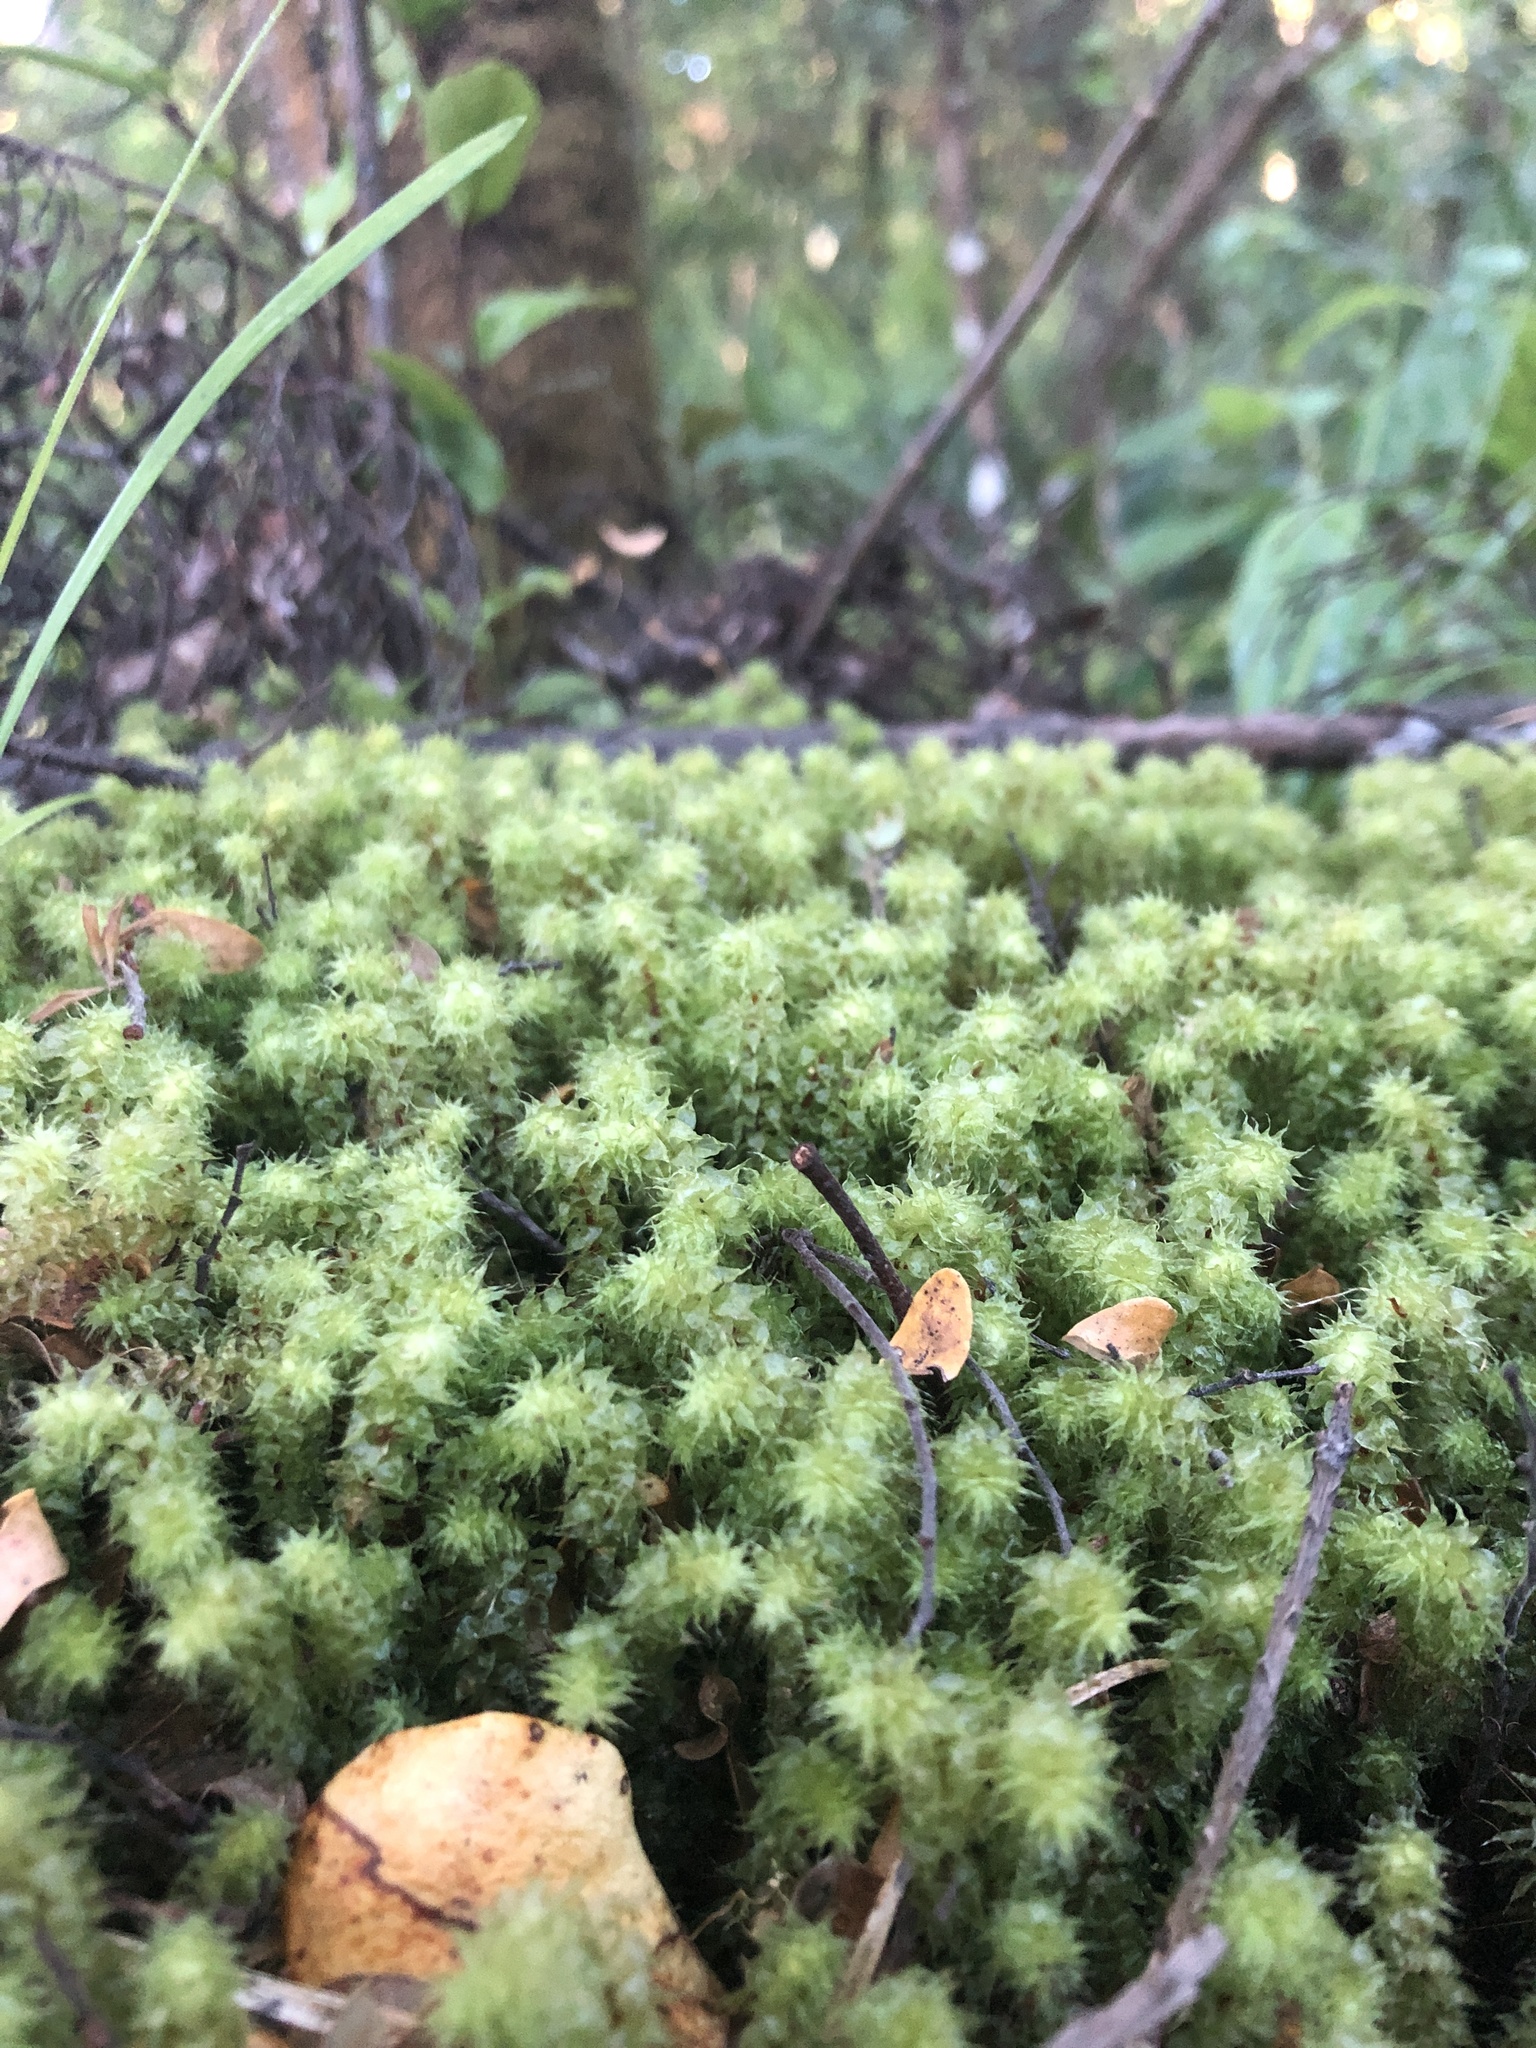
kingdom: Plantae
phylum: Bryophyta
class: Bryopsida
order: Ptychomniales
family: Ptychomniaceae
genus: Ptychomnion
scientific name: Ptychomnion aciculare
